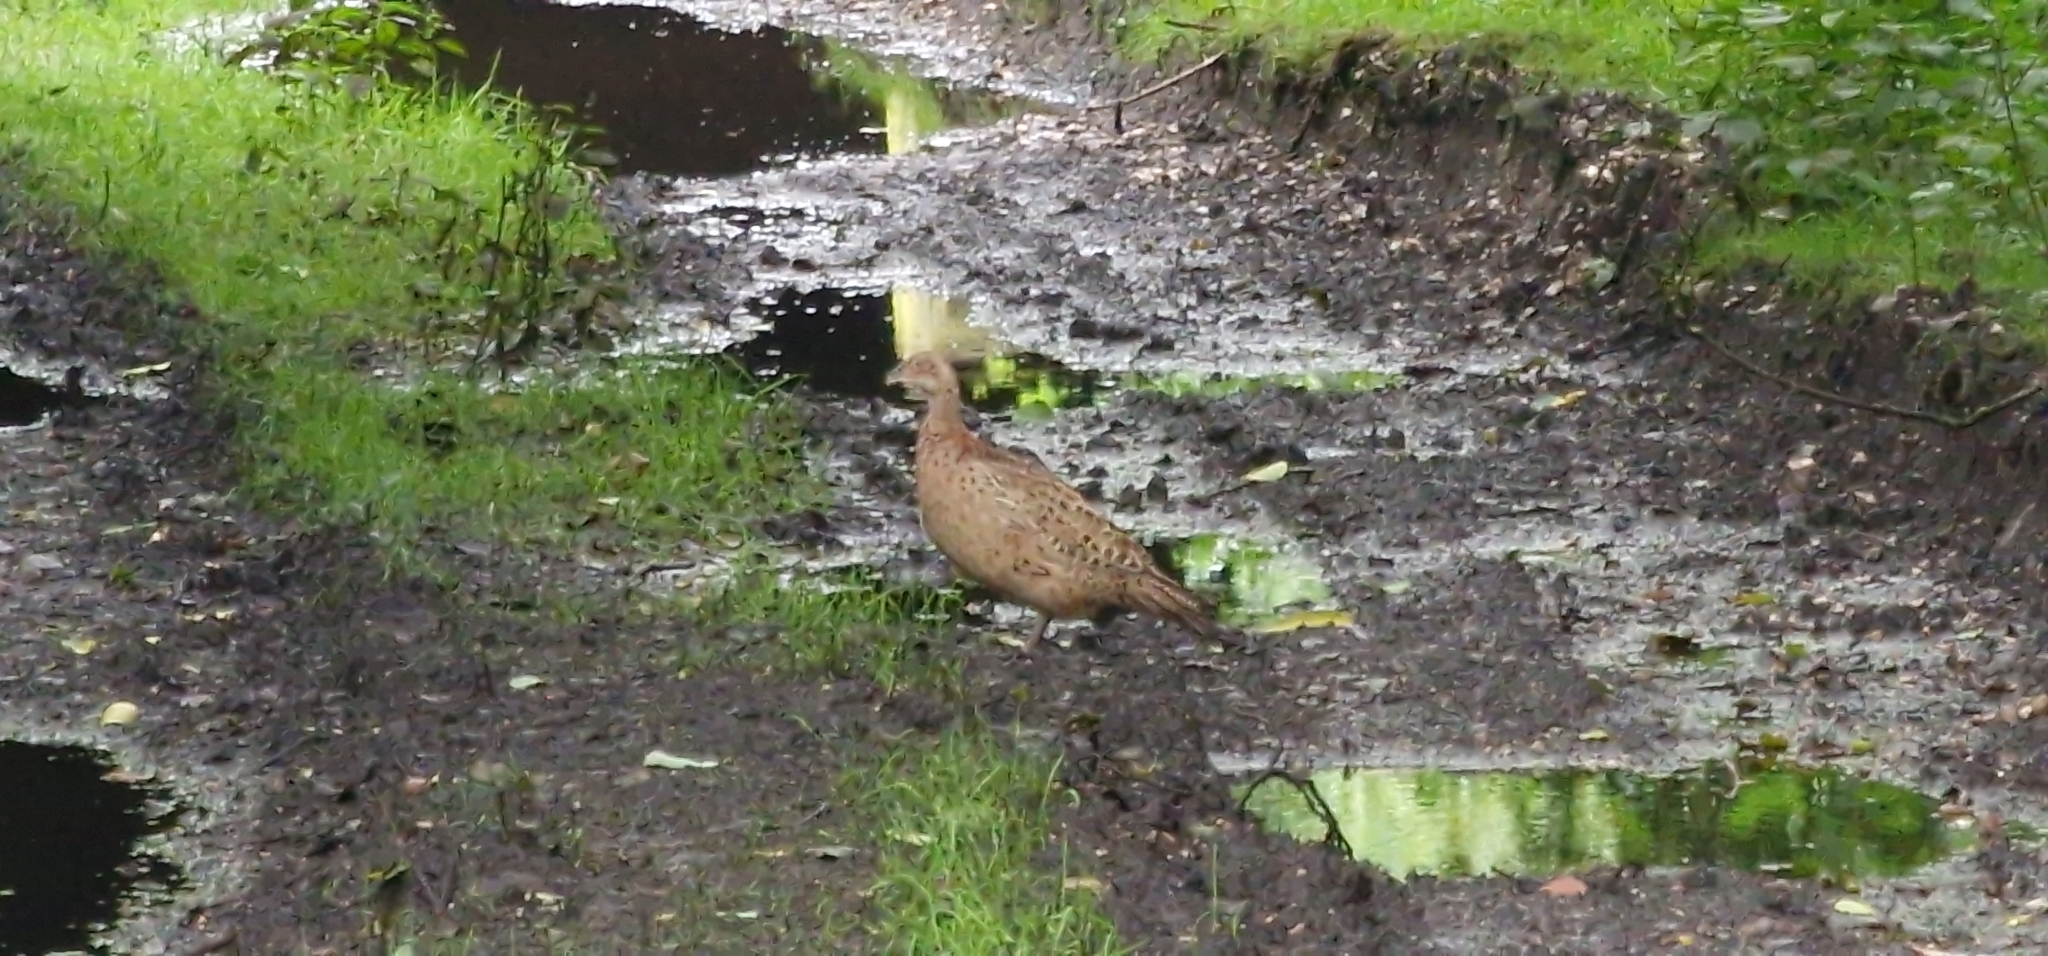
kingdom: Animalia
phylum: Chordata
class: Aves
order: Galliformes
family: Phasianidae
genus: Phasianus
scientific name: Phasianus colchicus
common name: Common pheasant
